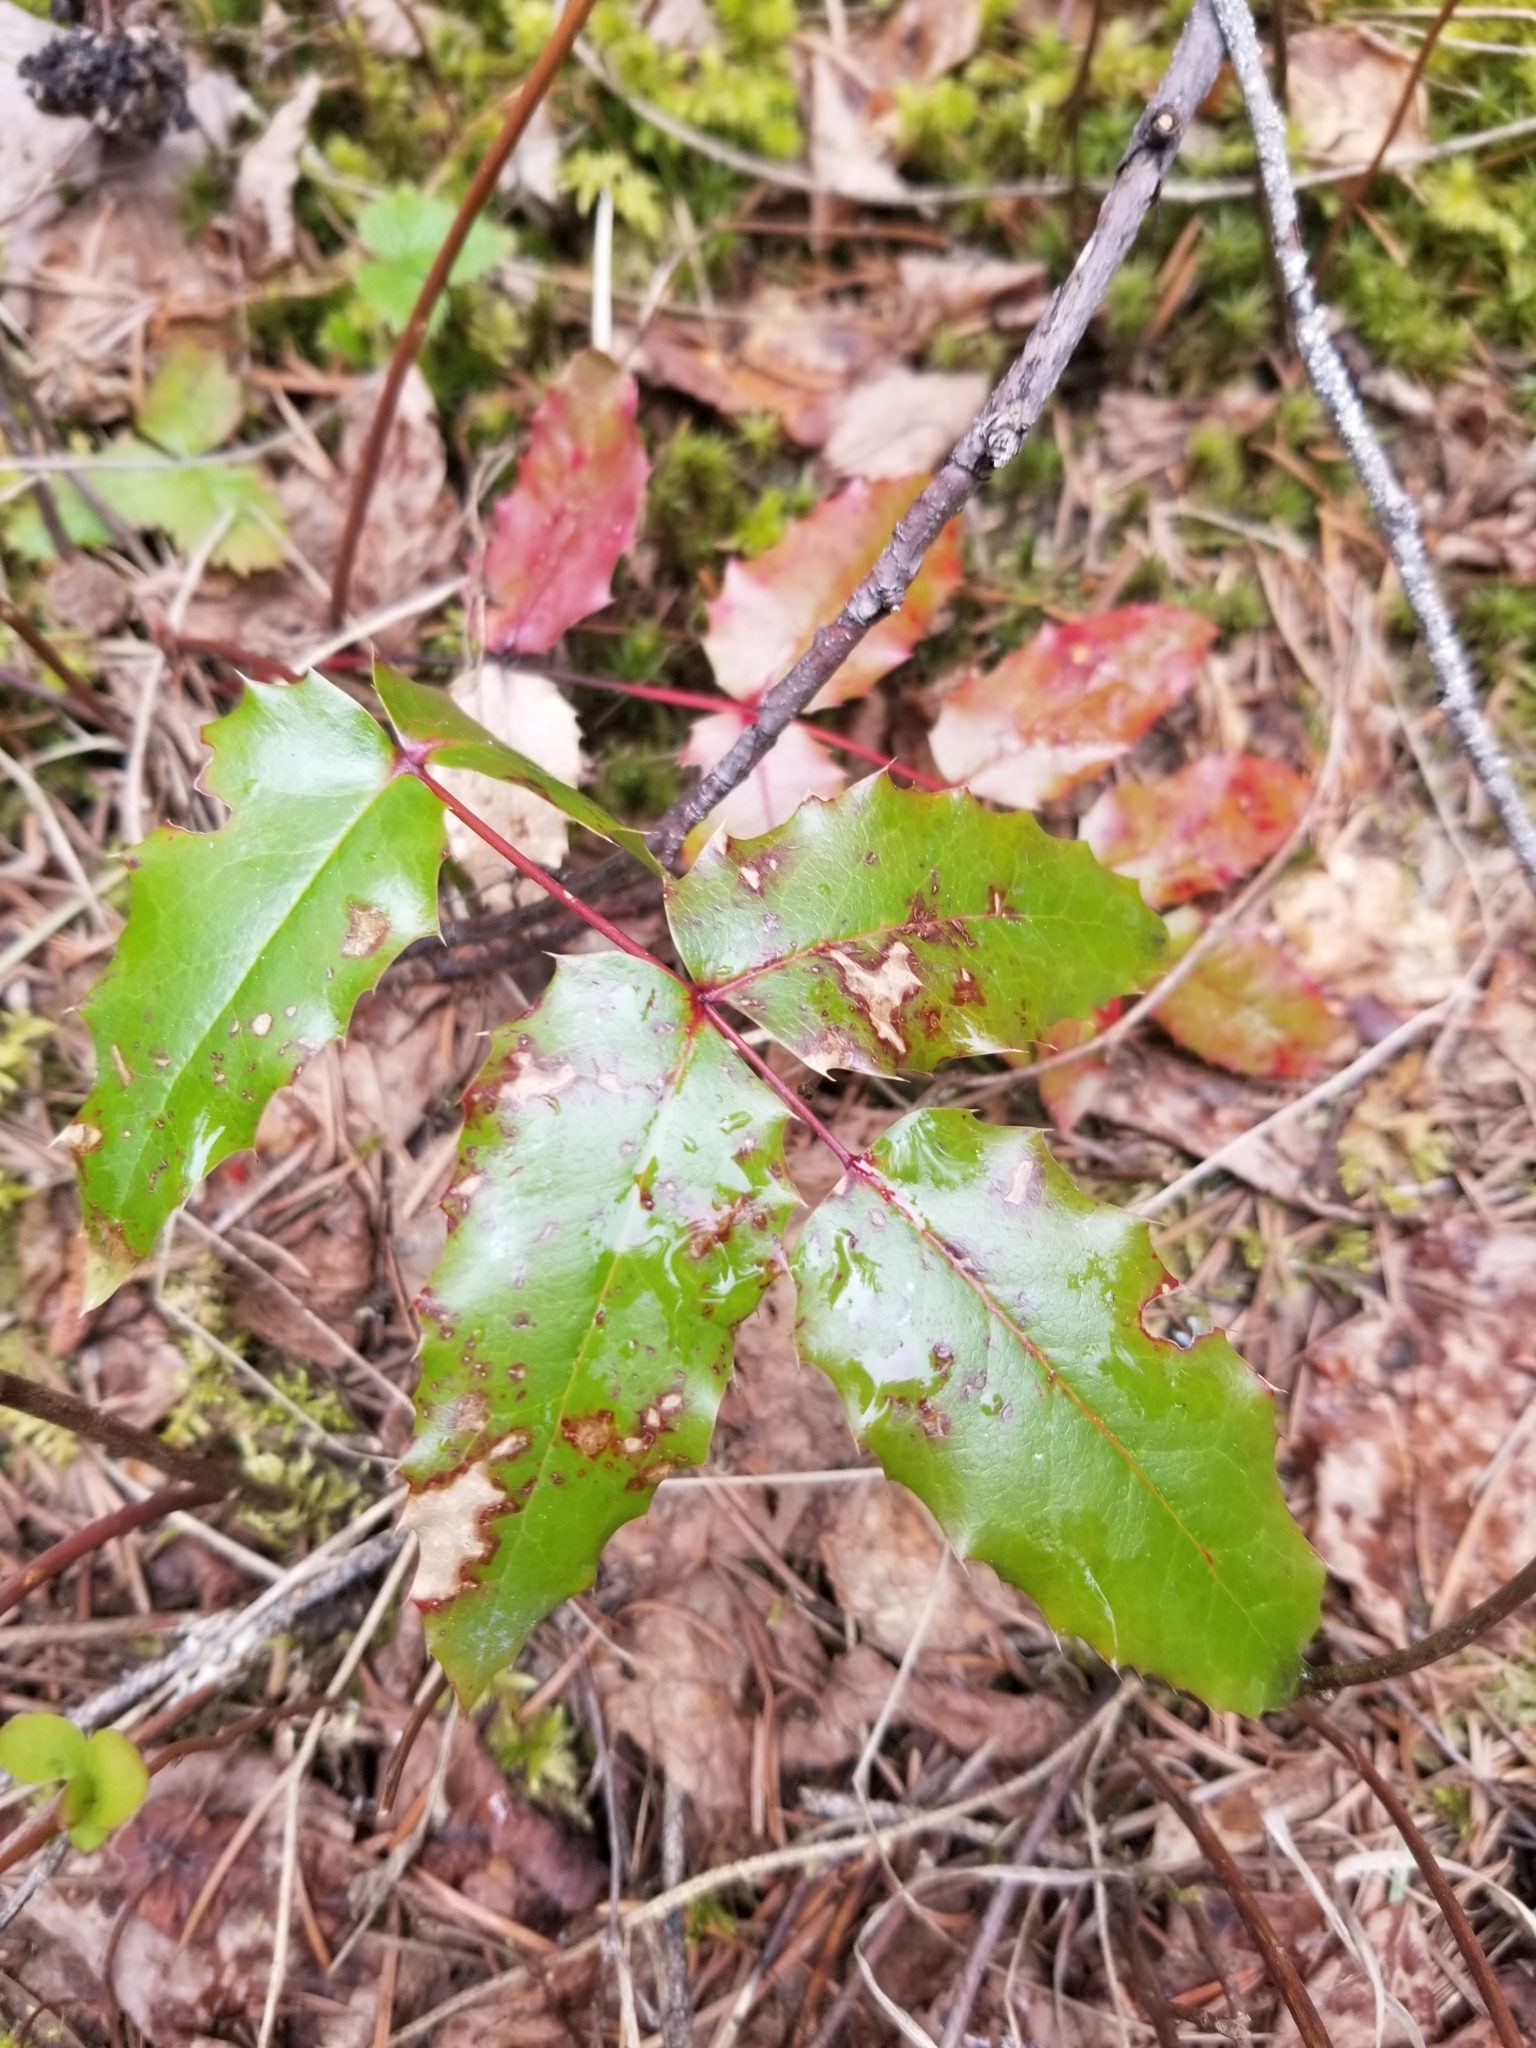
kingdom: Plantae
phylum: Tracheophyta
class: Magnoliopsida
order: Ranunculales
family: Berberidaceae
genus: Mahonia
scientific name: Mahonia aquifolium
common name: Oregon-grape
